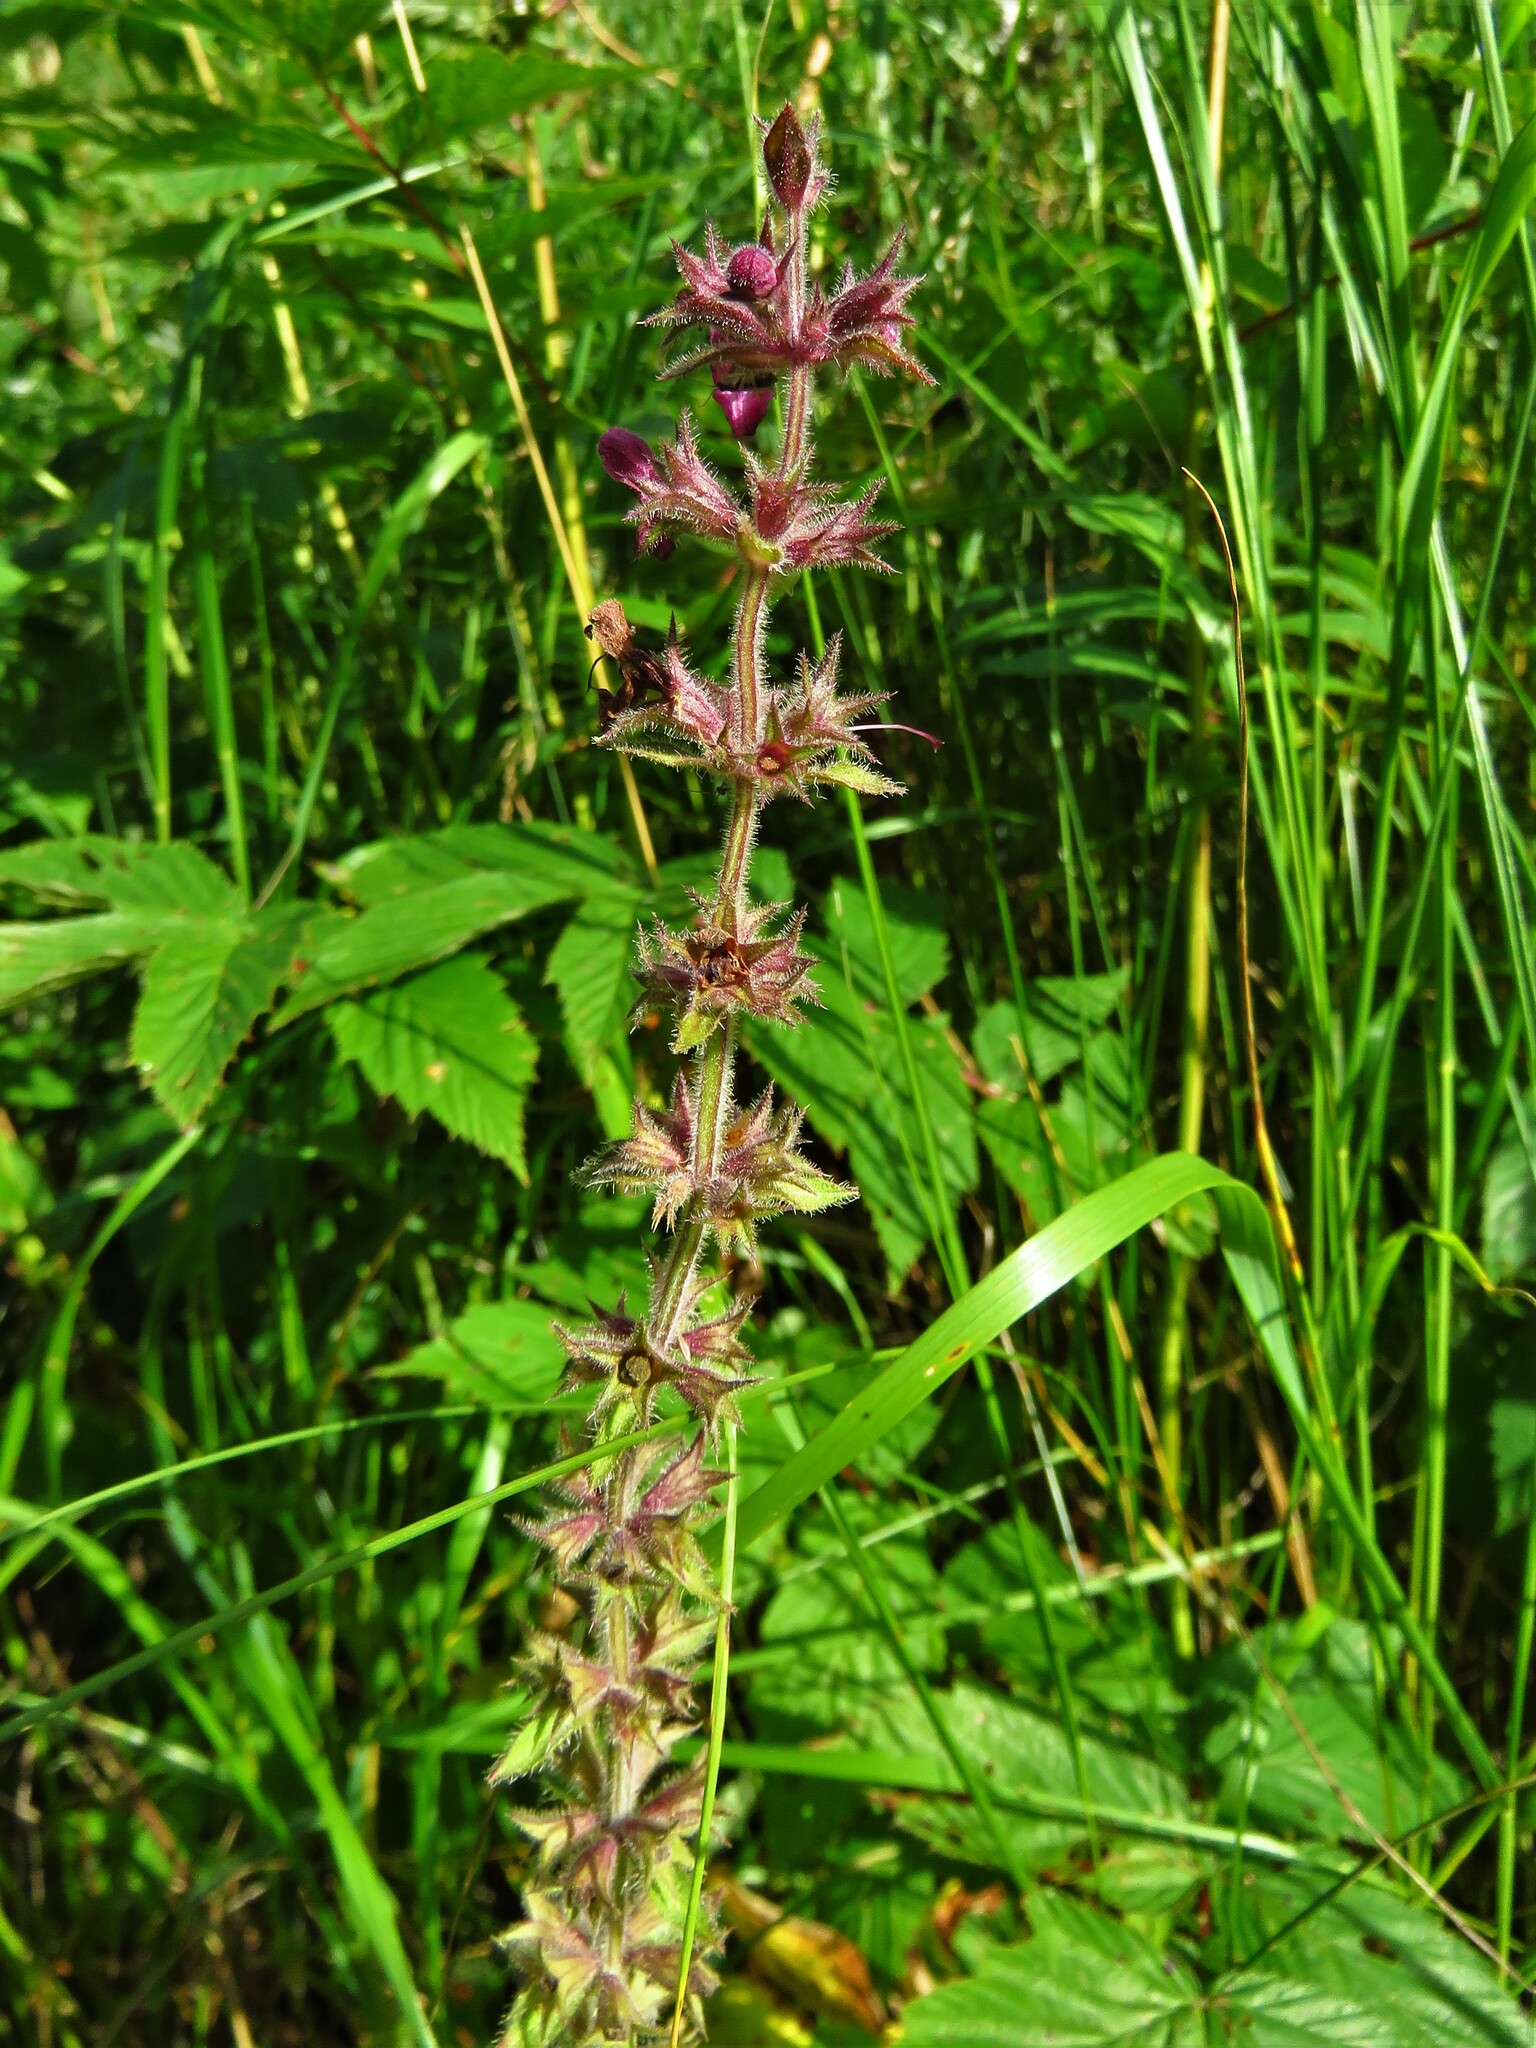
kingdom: Plantae
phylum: Tracheophyta
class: Magnoliopsida
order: Lamiales
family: Lamiaceae
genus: Stachys
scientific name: Stachys sylvatica
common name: Hedge woundwort
